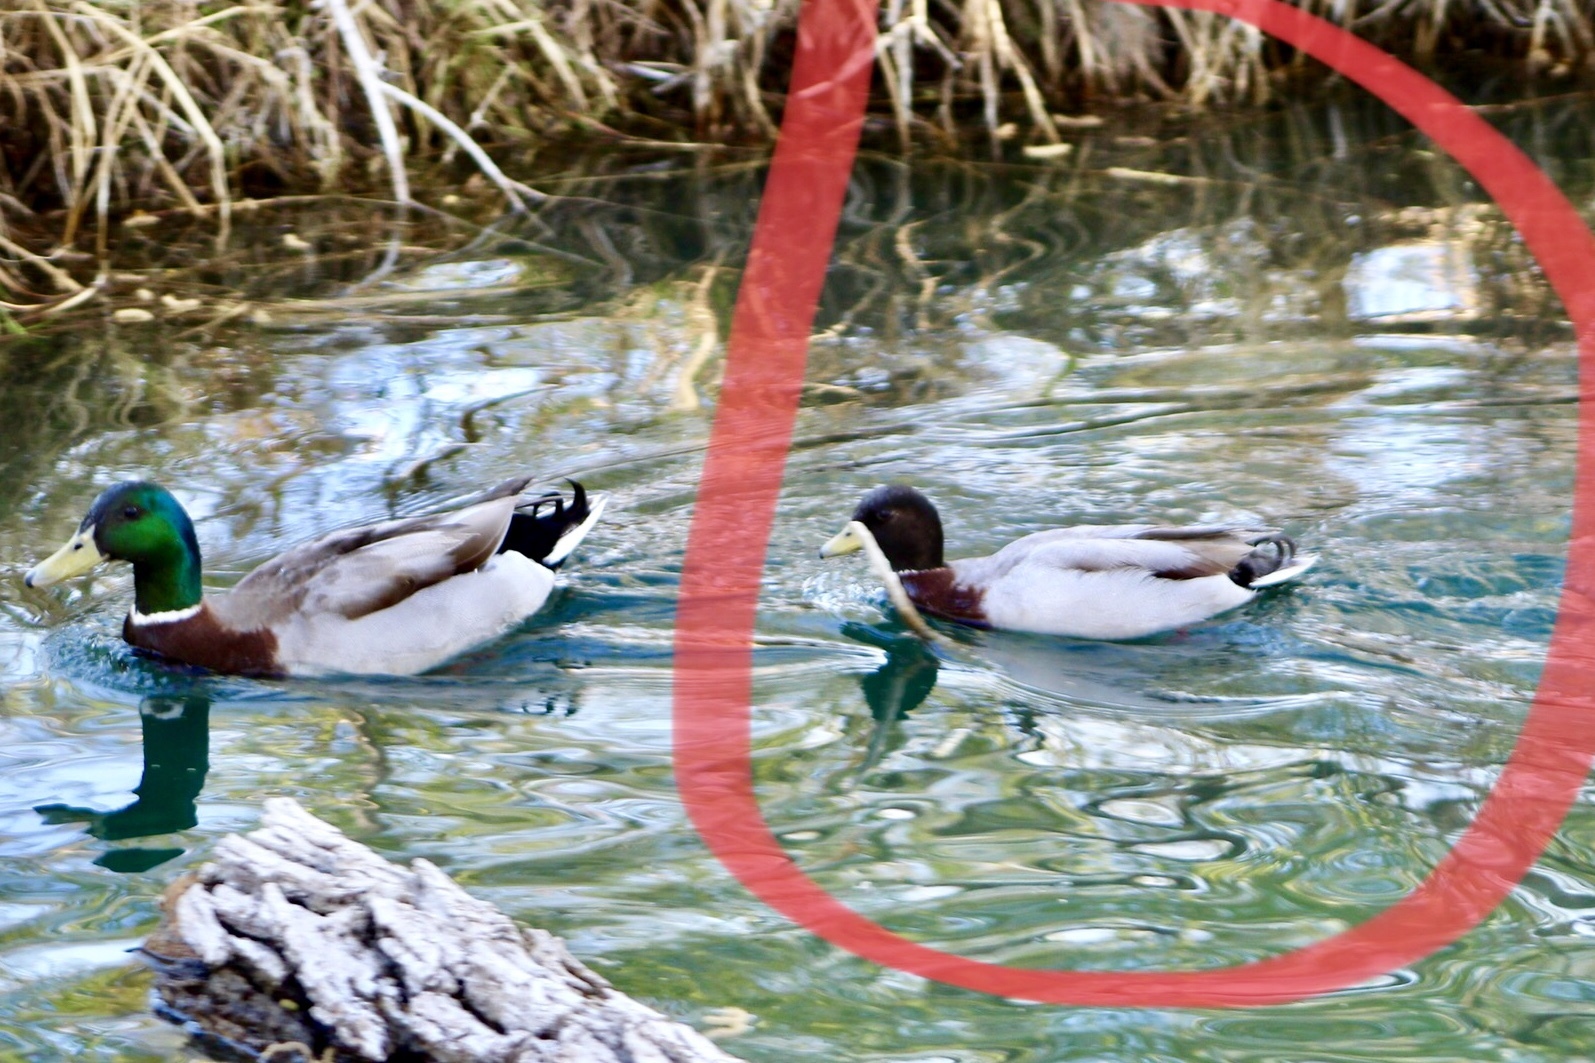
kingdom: Animalia
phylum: Chordata
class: Aves
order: Anseriformes
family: Anatidae
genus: Anas
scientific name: Anas platyrhynchos
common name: Mallard
